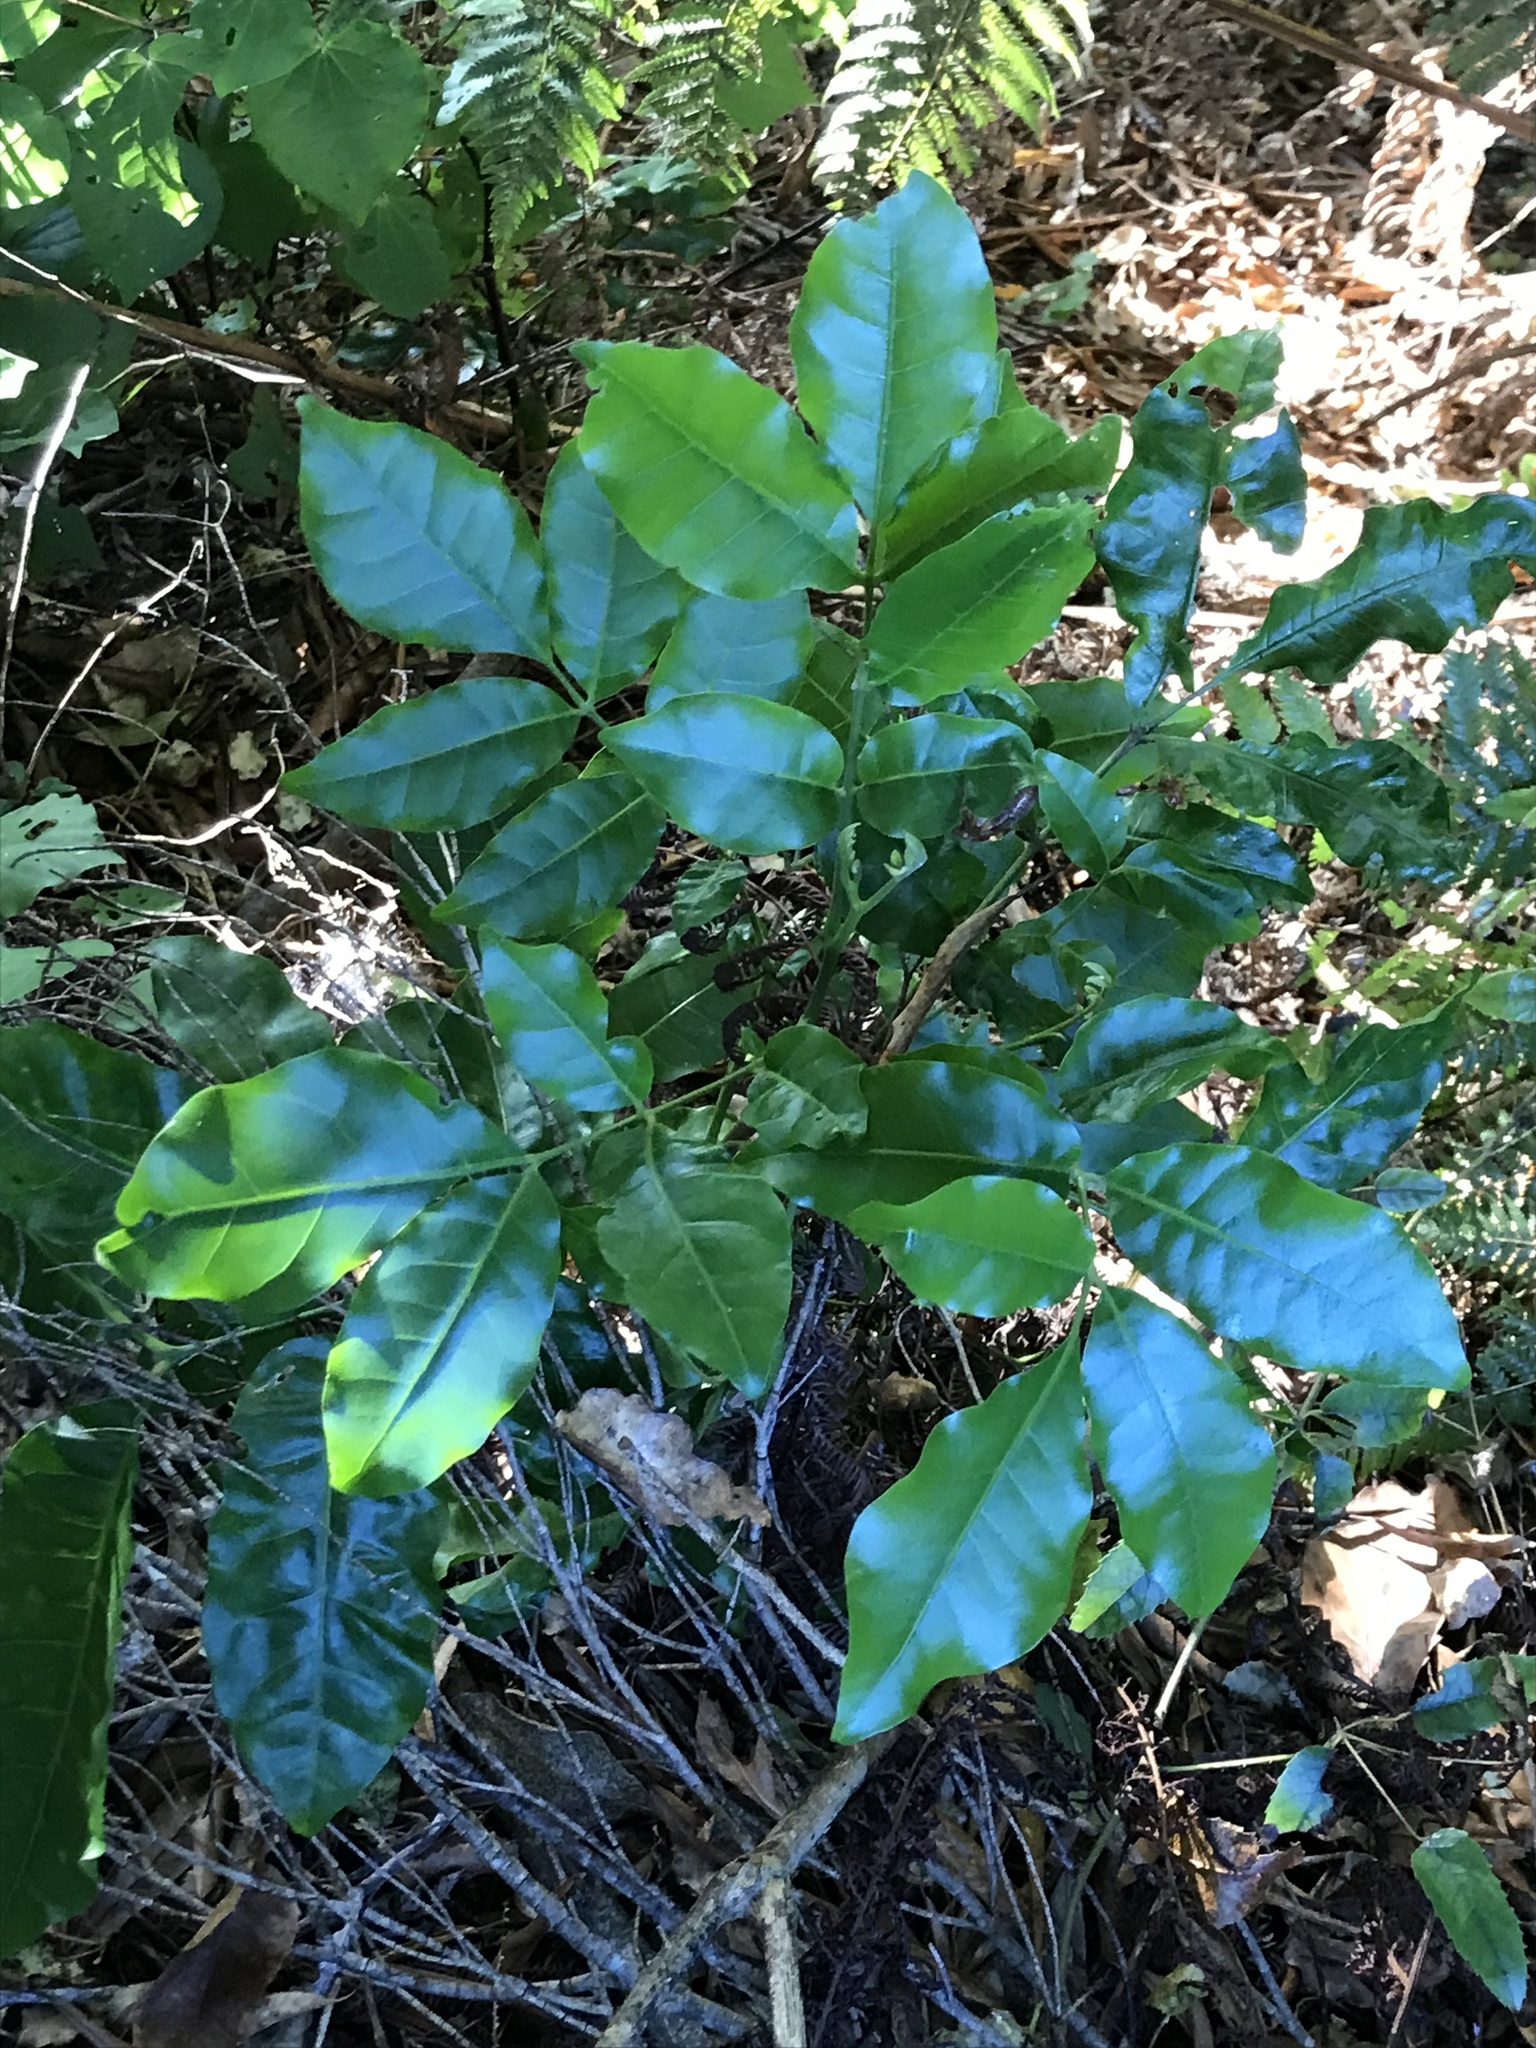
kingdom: Plantae
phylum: Tracheophyta
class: Magnoliopsida
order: Sapindales
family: Meliaceae
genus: Didymocheton
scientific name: Didymocheton spectabilis
